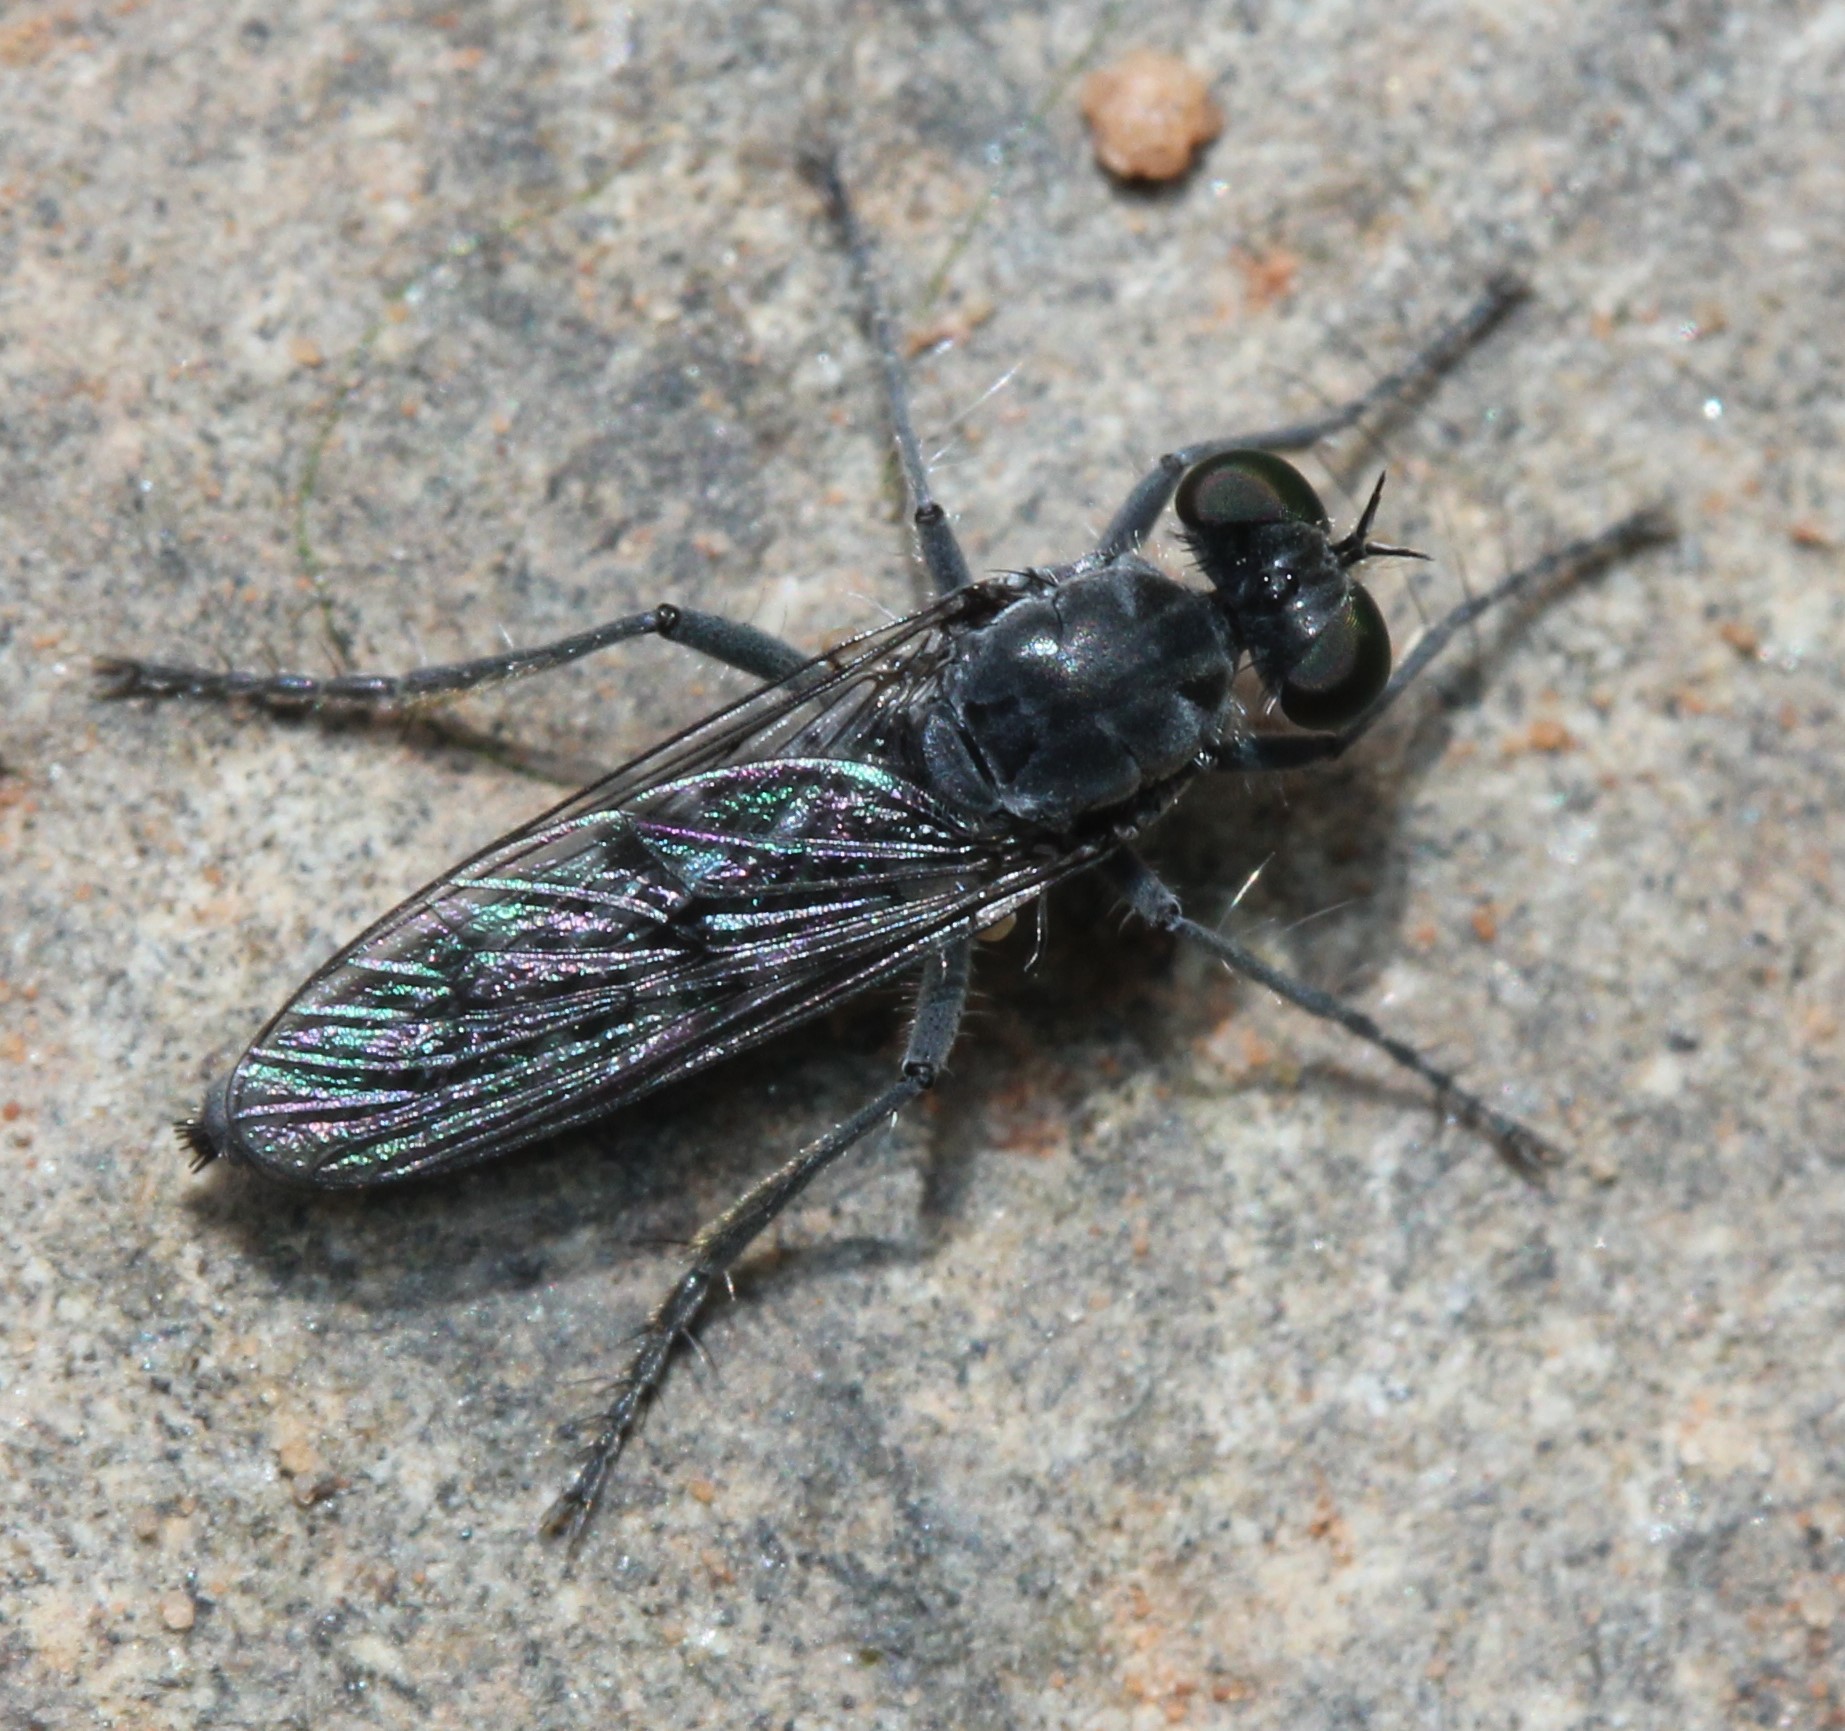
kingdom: Animalia
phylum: Arthropoda
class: Insecta
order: Diptera
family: Asilidae
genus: Stichopogon
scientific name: Stichopogon catulus
